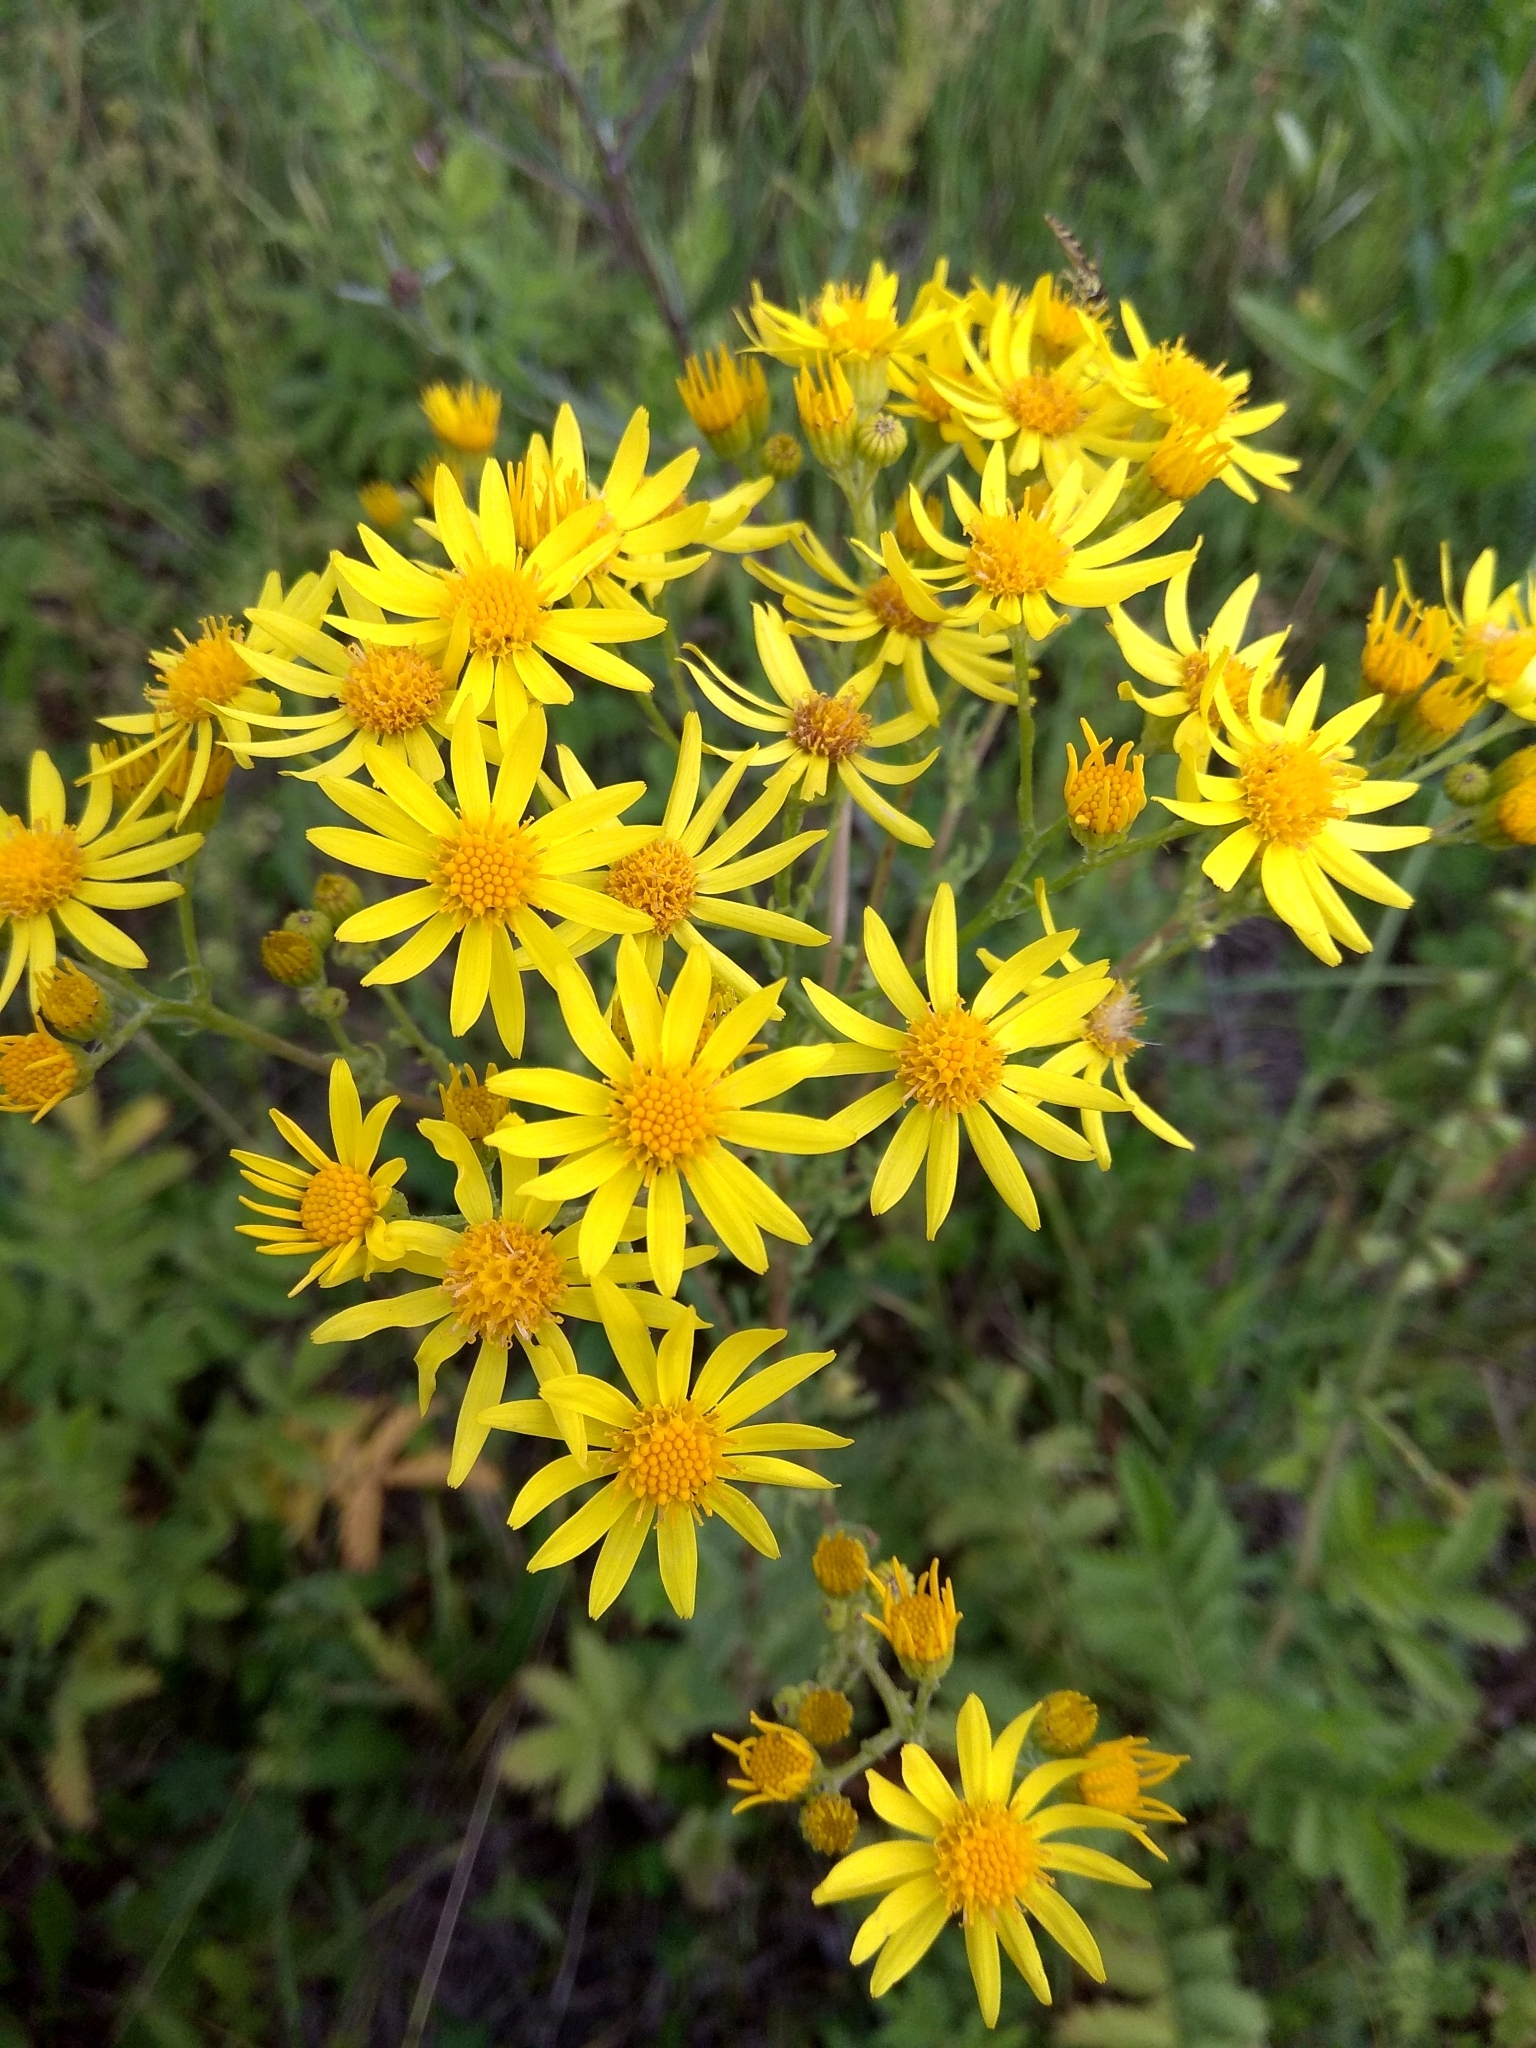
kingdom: Plantae
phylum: Tracheophyta
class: Magnoliopsida
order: Asterales
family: Asteraceae
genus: Jacobaea
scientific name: Jacobaea vulgaris
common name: Stinking willie
